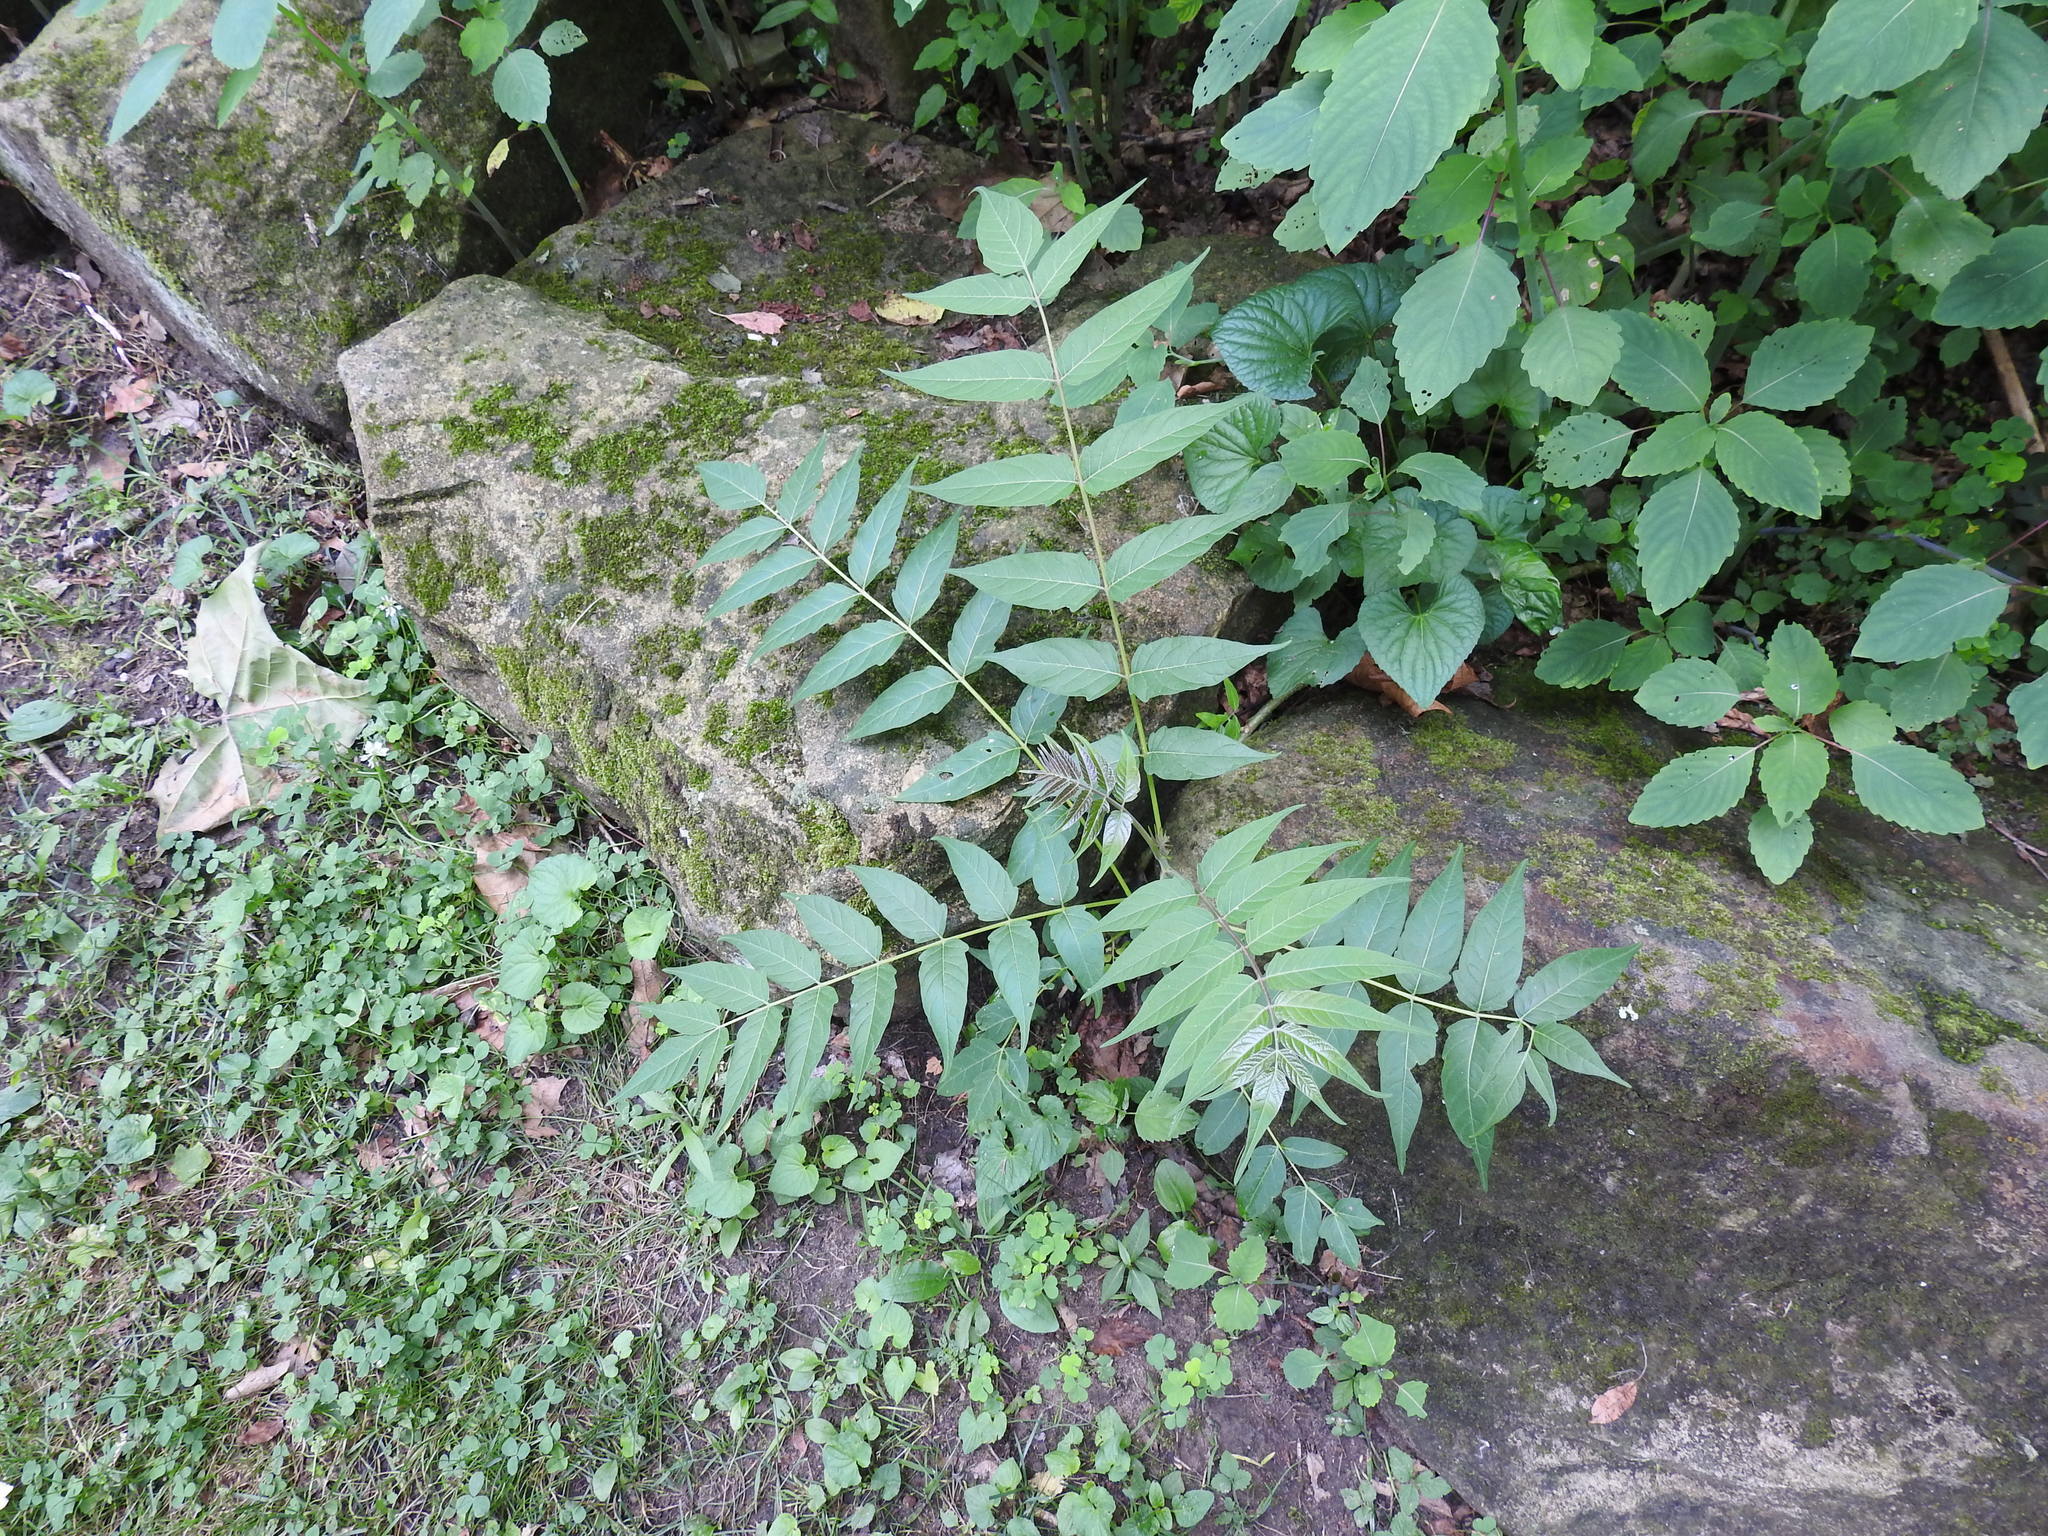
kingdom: Plantae
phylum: Tracheophyta
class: Magnoliopsida
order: Sapindales
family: Simaroubaceae
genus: Ailanthus
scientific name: Ailanthus altissima
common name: Tree-of-heaven
